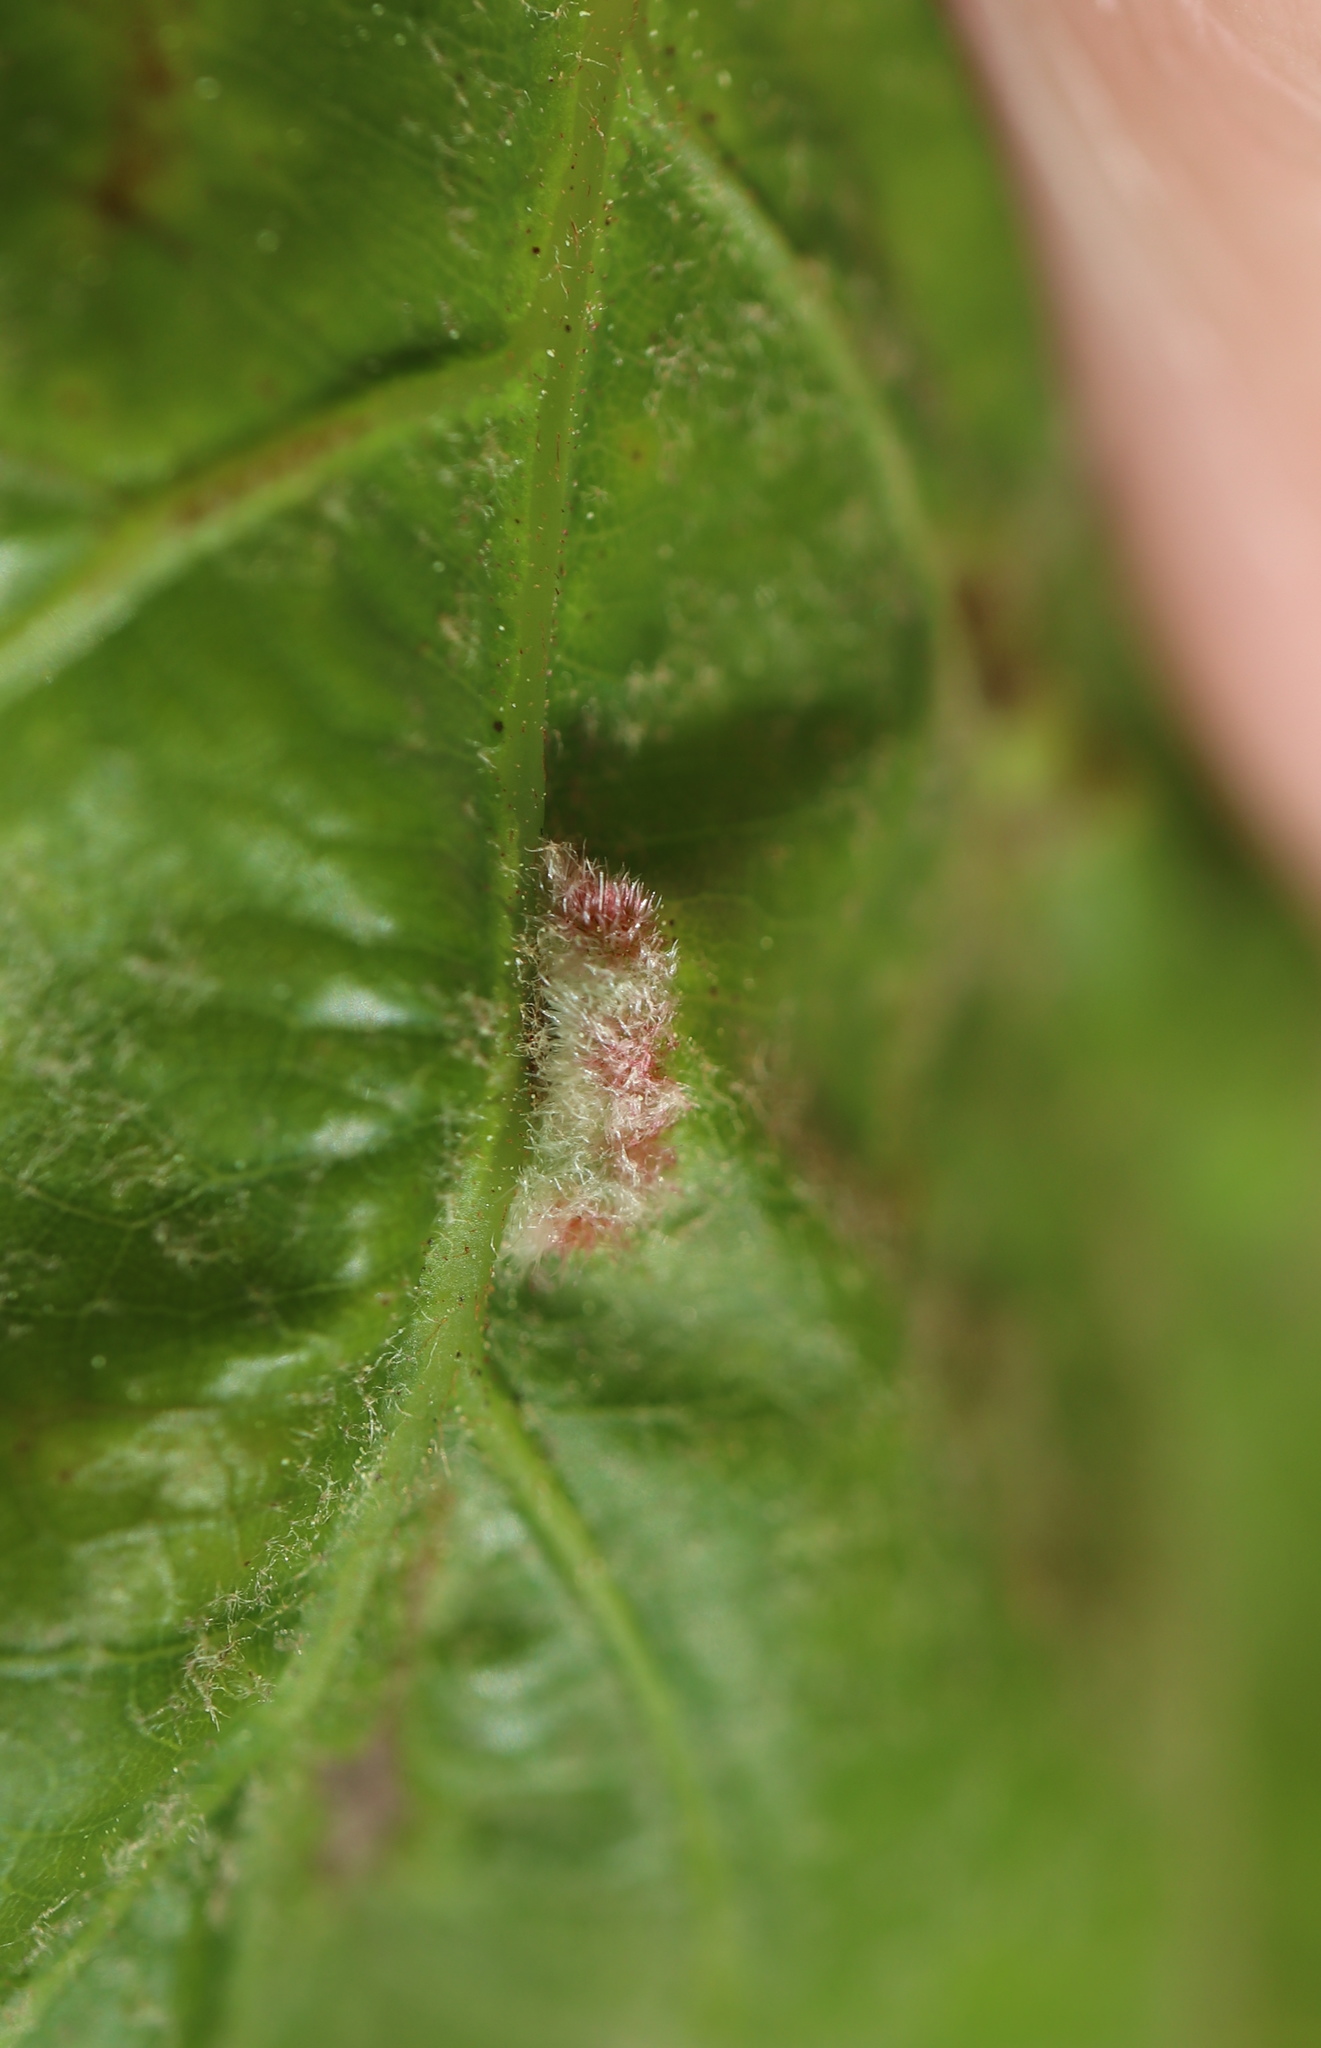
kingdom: Animalia
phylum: Arthropoda
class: Insecta
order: Diptera
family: Cecidomyiidae
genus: Macrodiplosis
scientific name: Macrodiplosis niveipila
